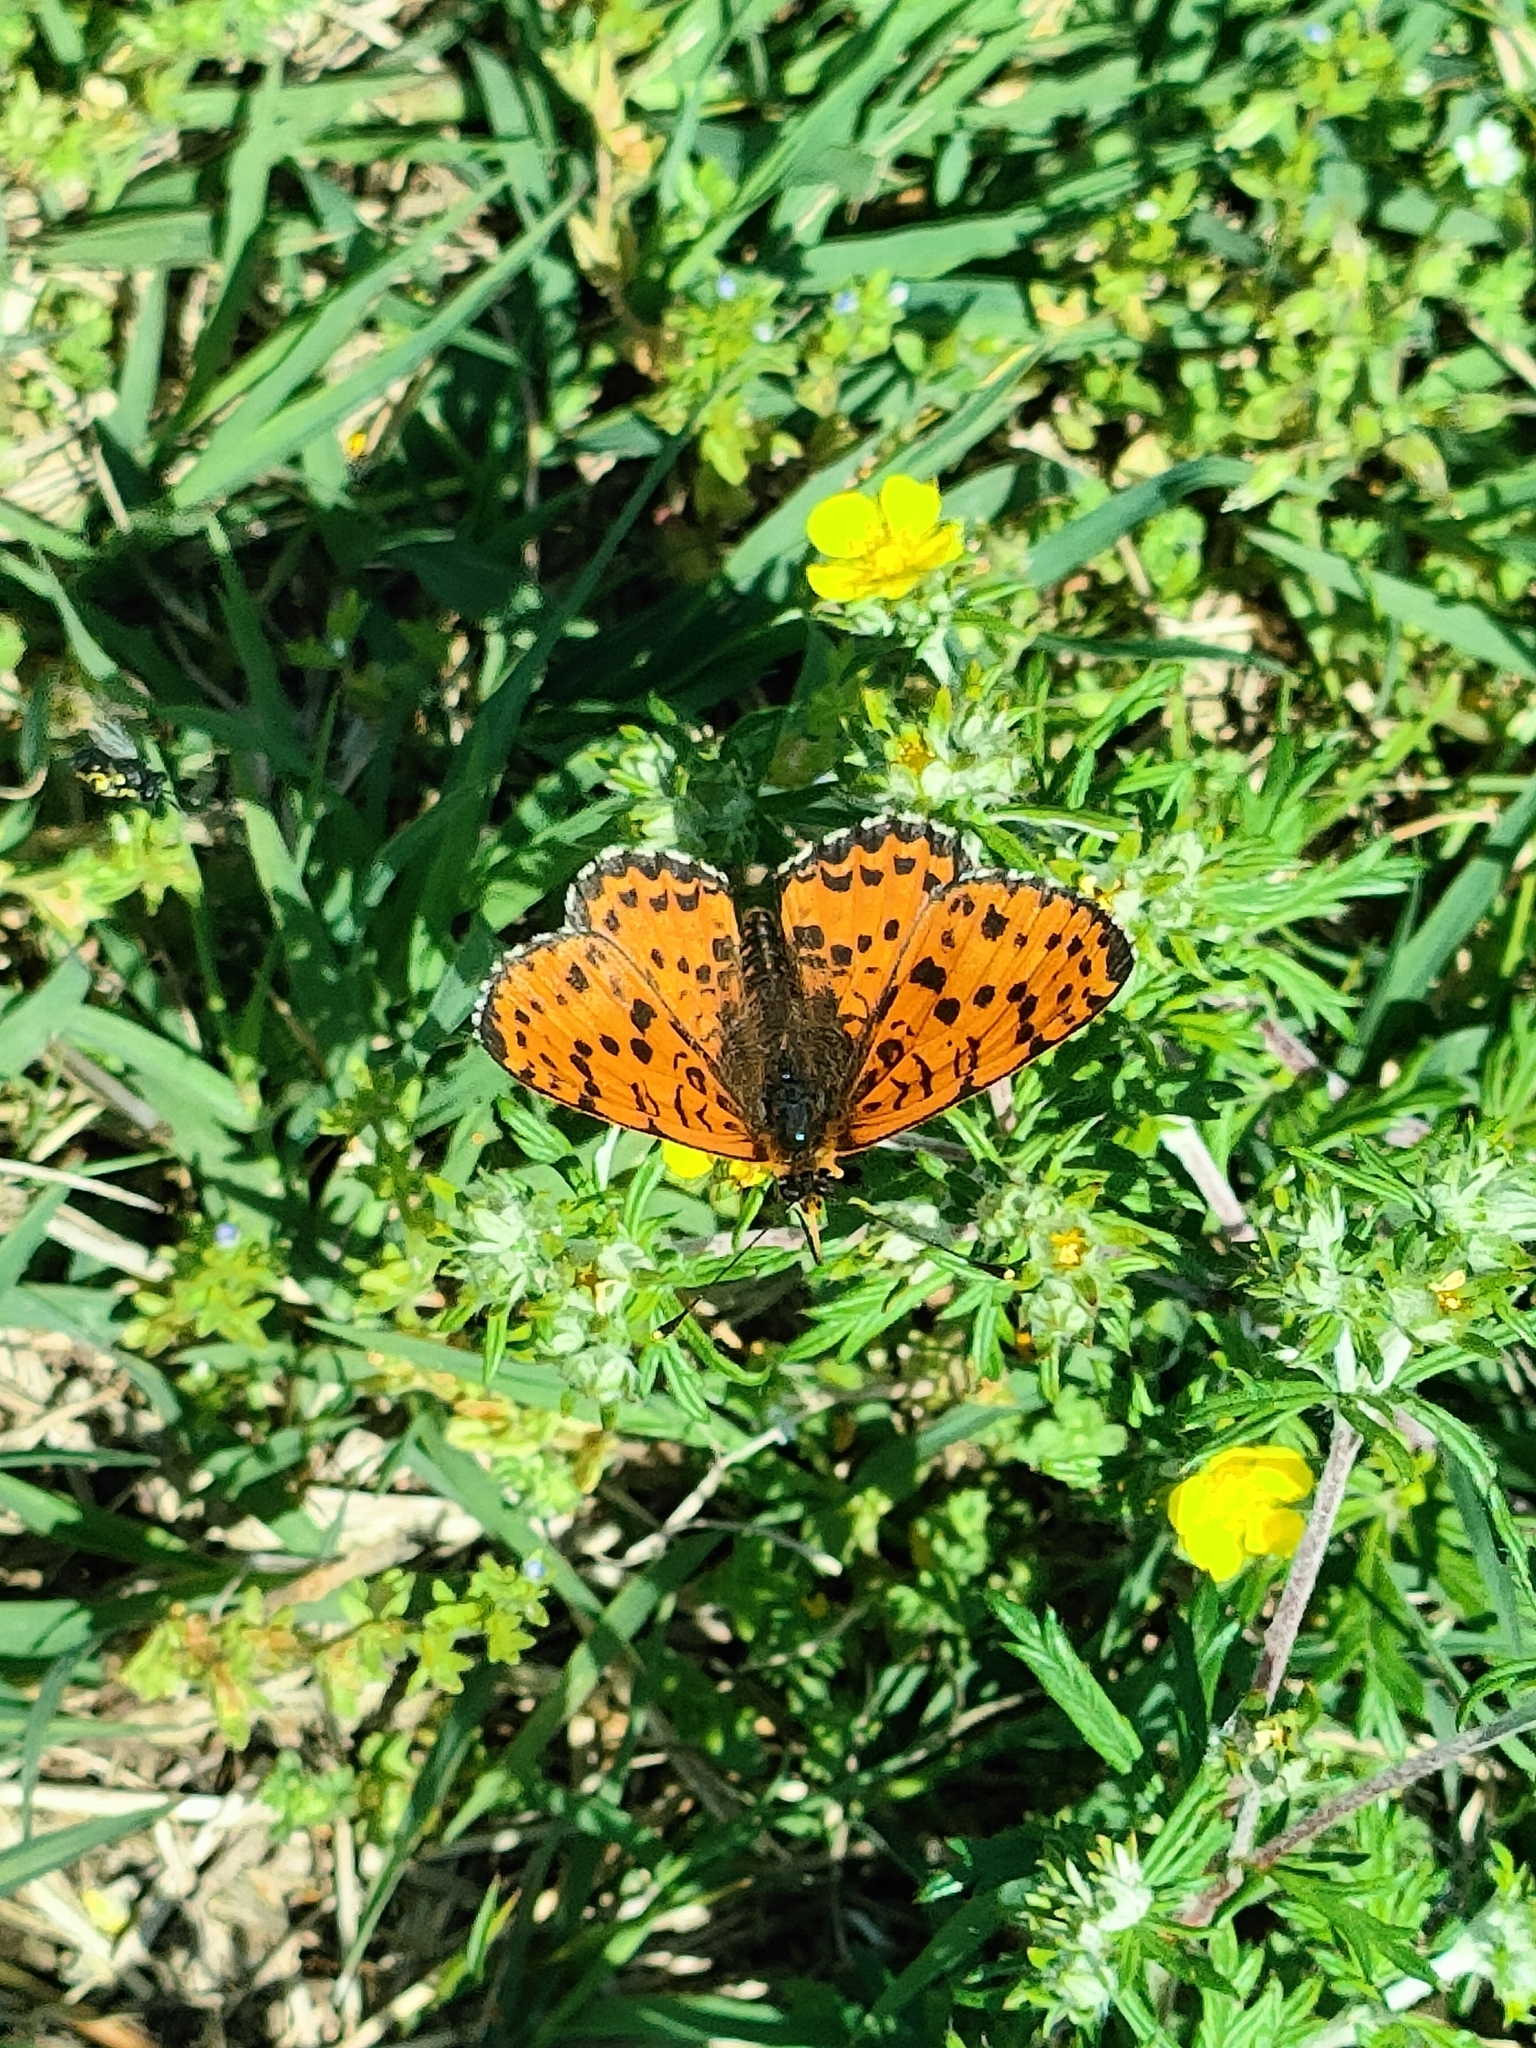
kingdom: Animalia
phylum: Arthropoda
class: Insecta
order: Lepidoptera
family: Nymphalidae
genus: Melitaea
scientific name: Melitaea didyma
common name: Spotted fritillary
